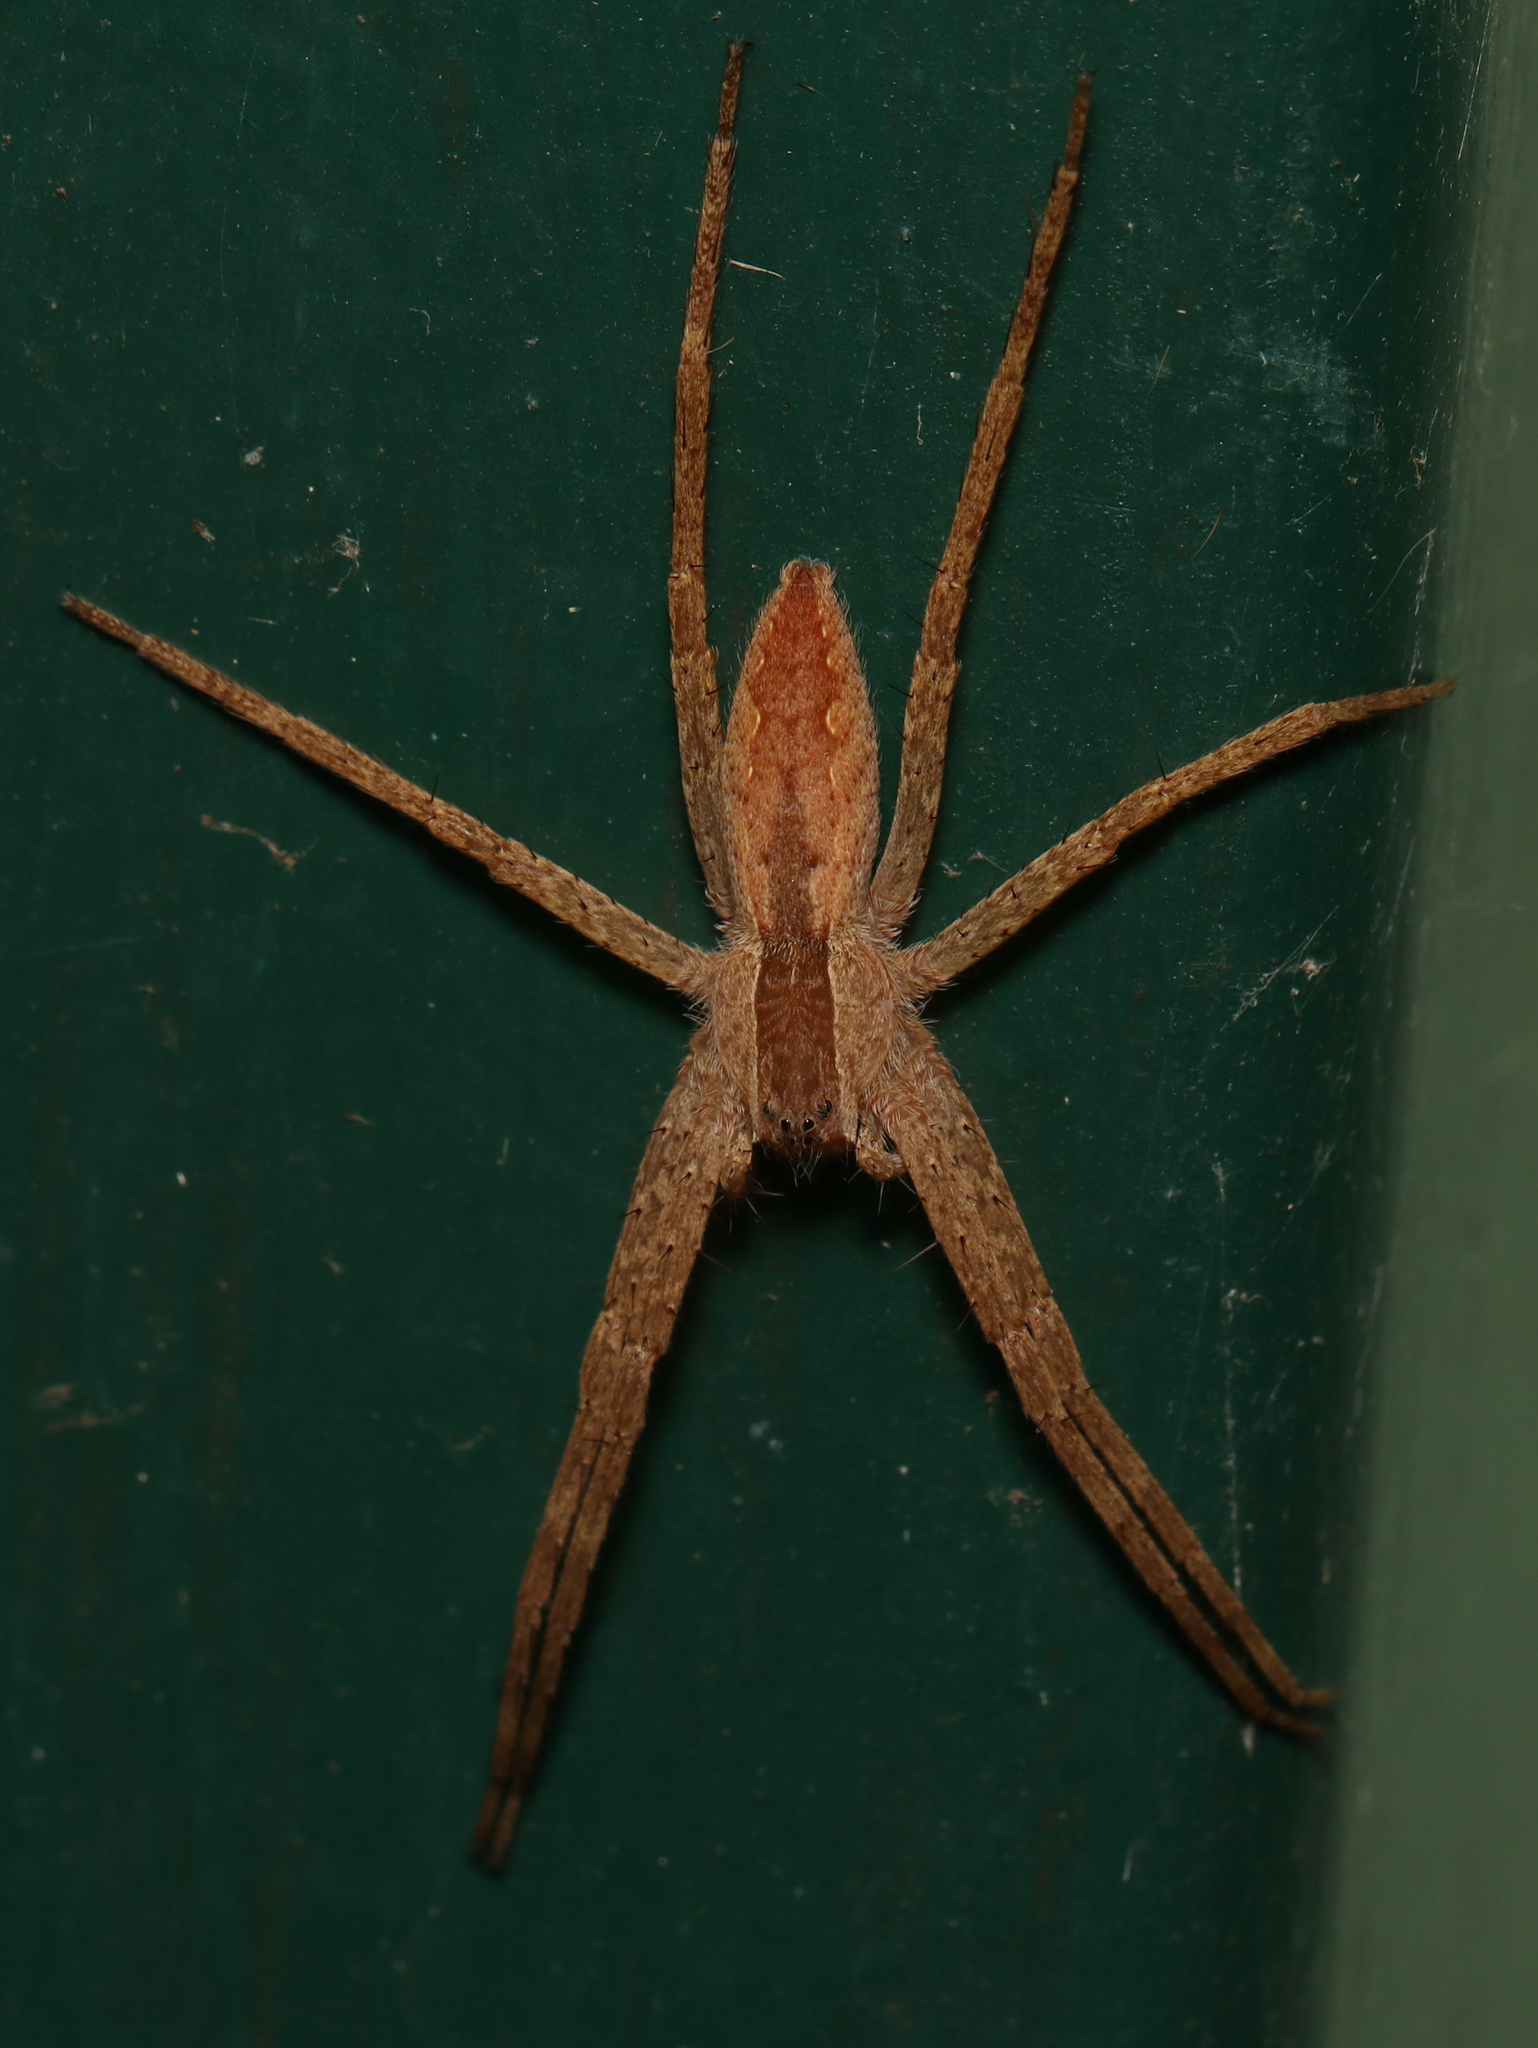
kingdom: Animalia
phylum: Arthropoda
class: Arachnida
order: Araneae
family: Pisauridae
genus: Pisaurina
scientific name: Pisaurina mira
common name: American nursery web spider
